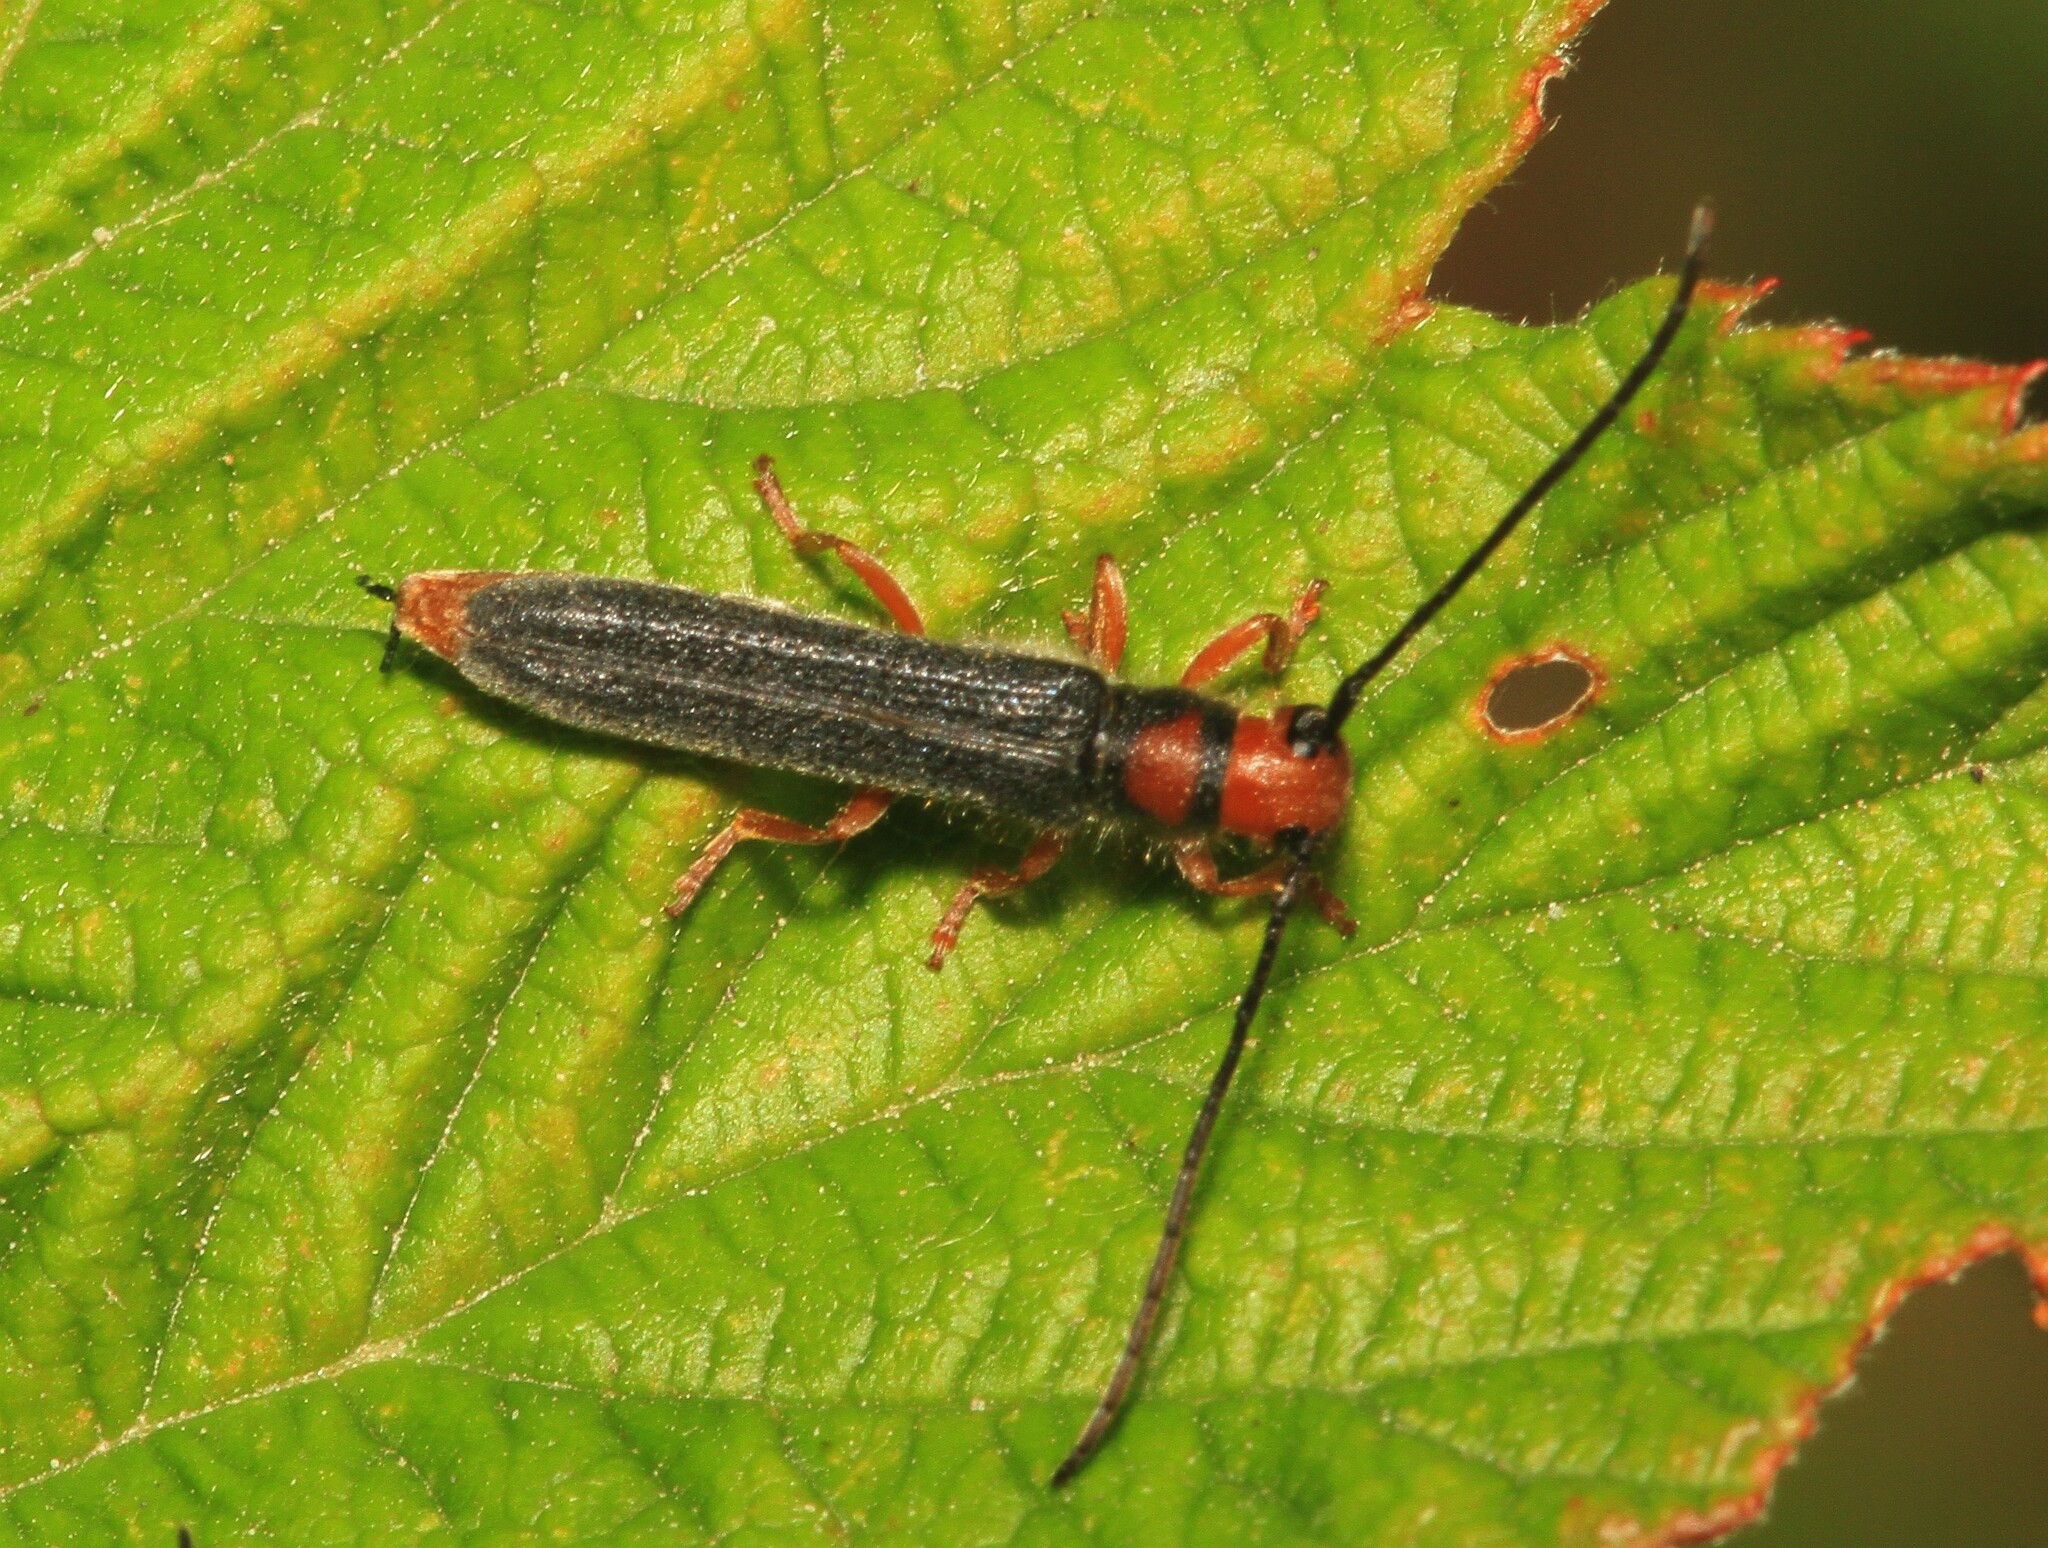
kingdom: Animalia
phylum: Arthropoda
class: Insecta
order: Coleoptera
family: Cerambycidae
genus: Oberea
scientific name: Oberea erythrocephala
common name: Leafy spurge stem boring beetle
